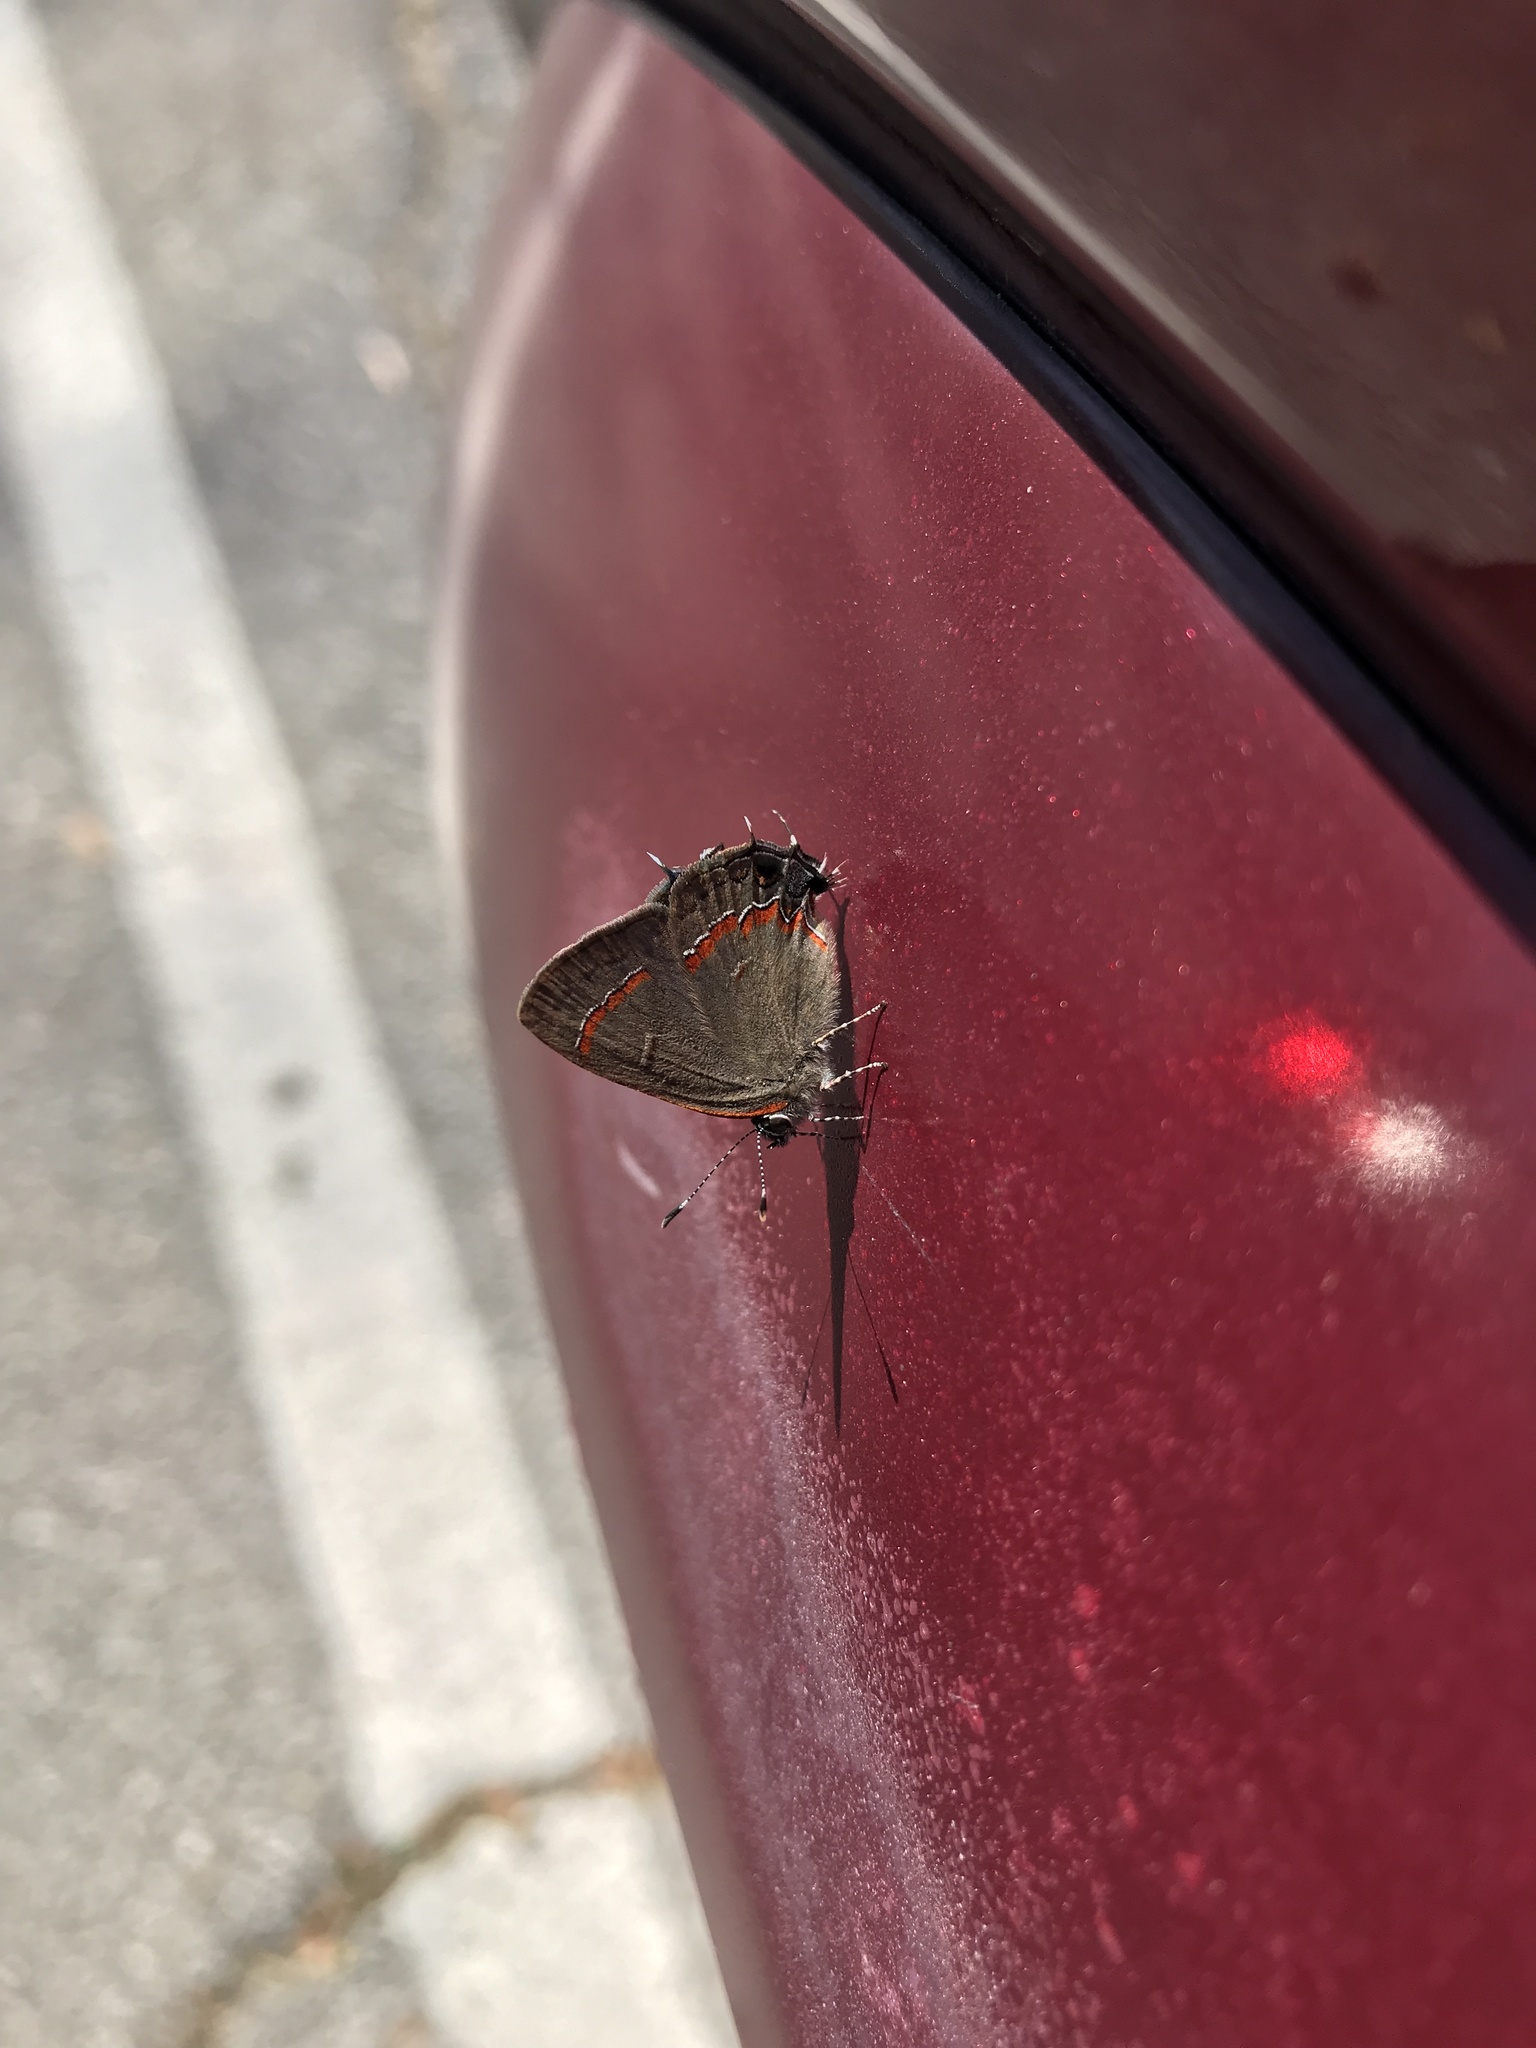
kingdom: Animalia
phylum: Arthropoda
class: Insecta
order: Lepidoptera
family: Lycaenidae
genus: Calycopis
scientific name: Calycopis cecrops
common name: Red-banded hairstreak
